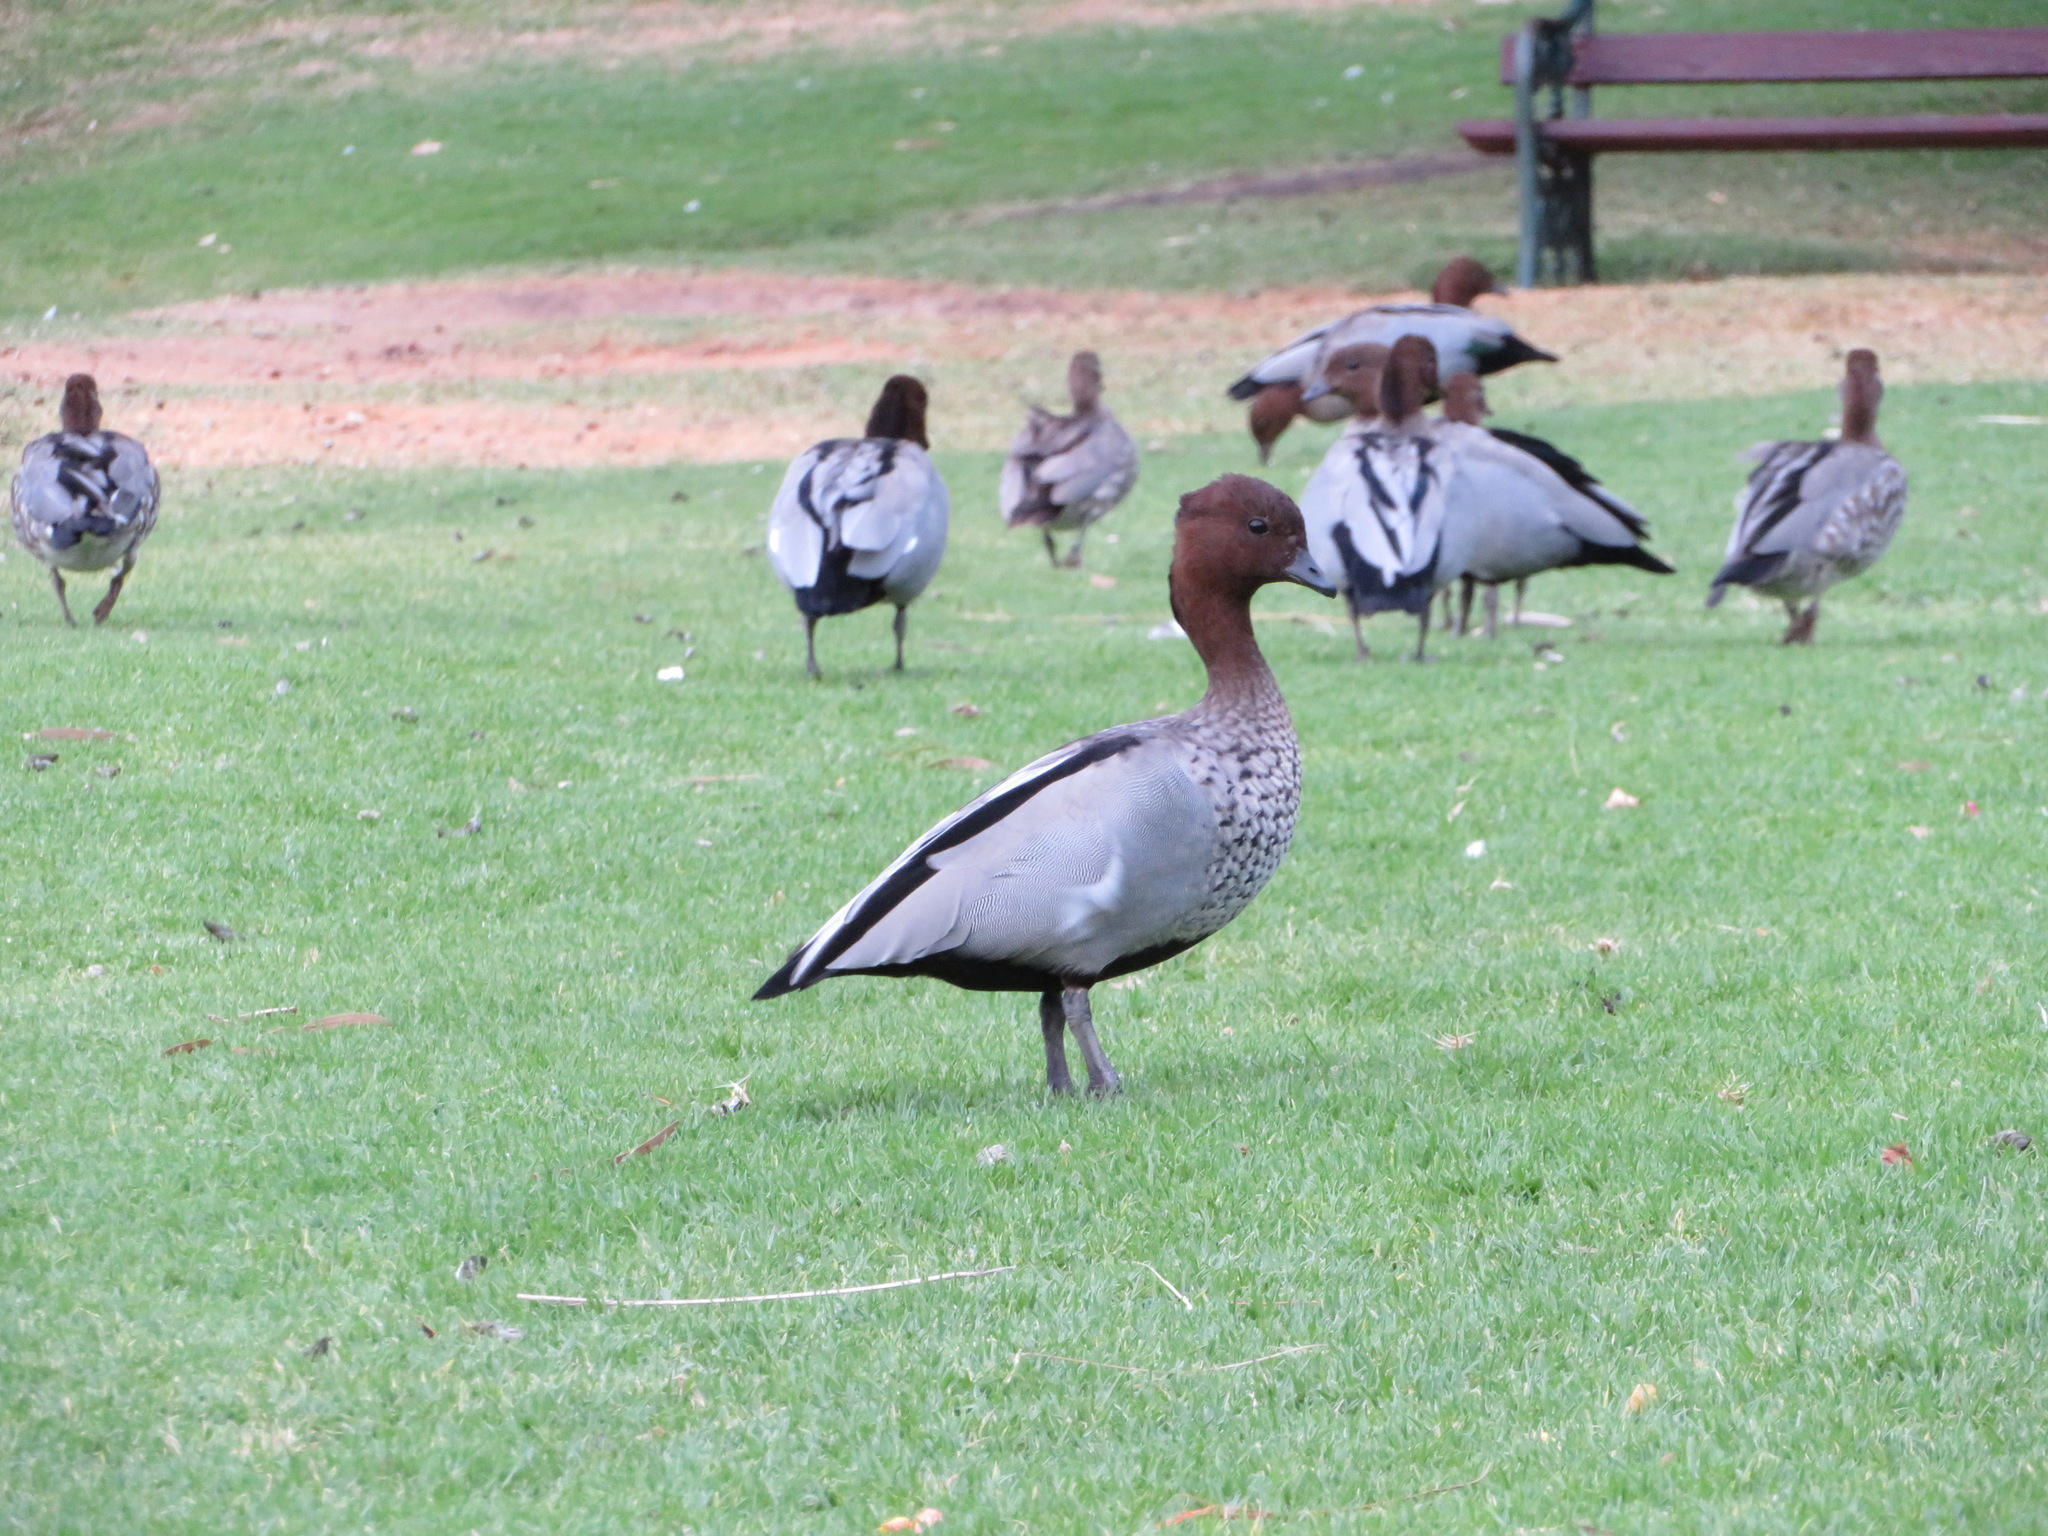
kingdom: Animalia
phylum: Chordata
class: Aves
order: Anseriformes
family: Anatidae
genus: Chenonetta
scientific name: Chenonetta jubata
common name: Maned duck
